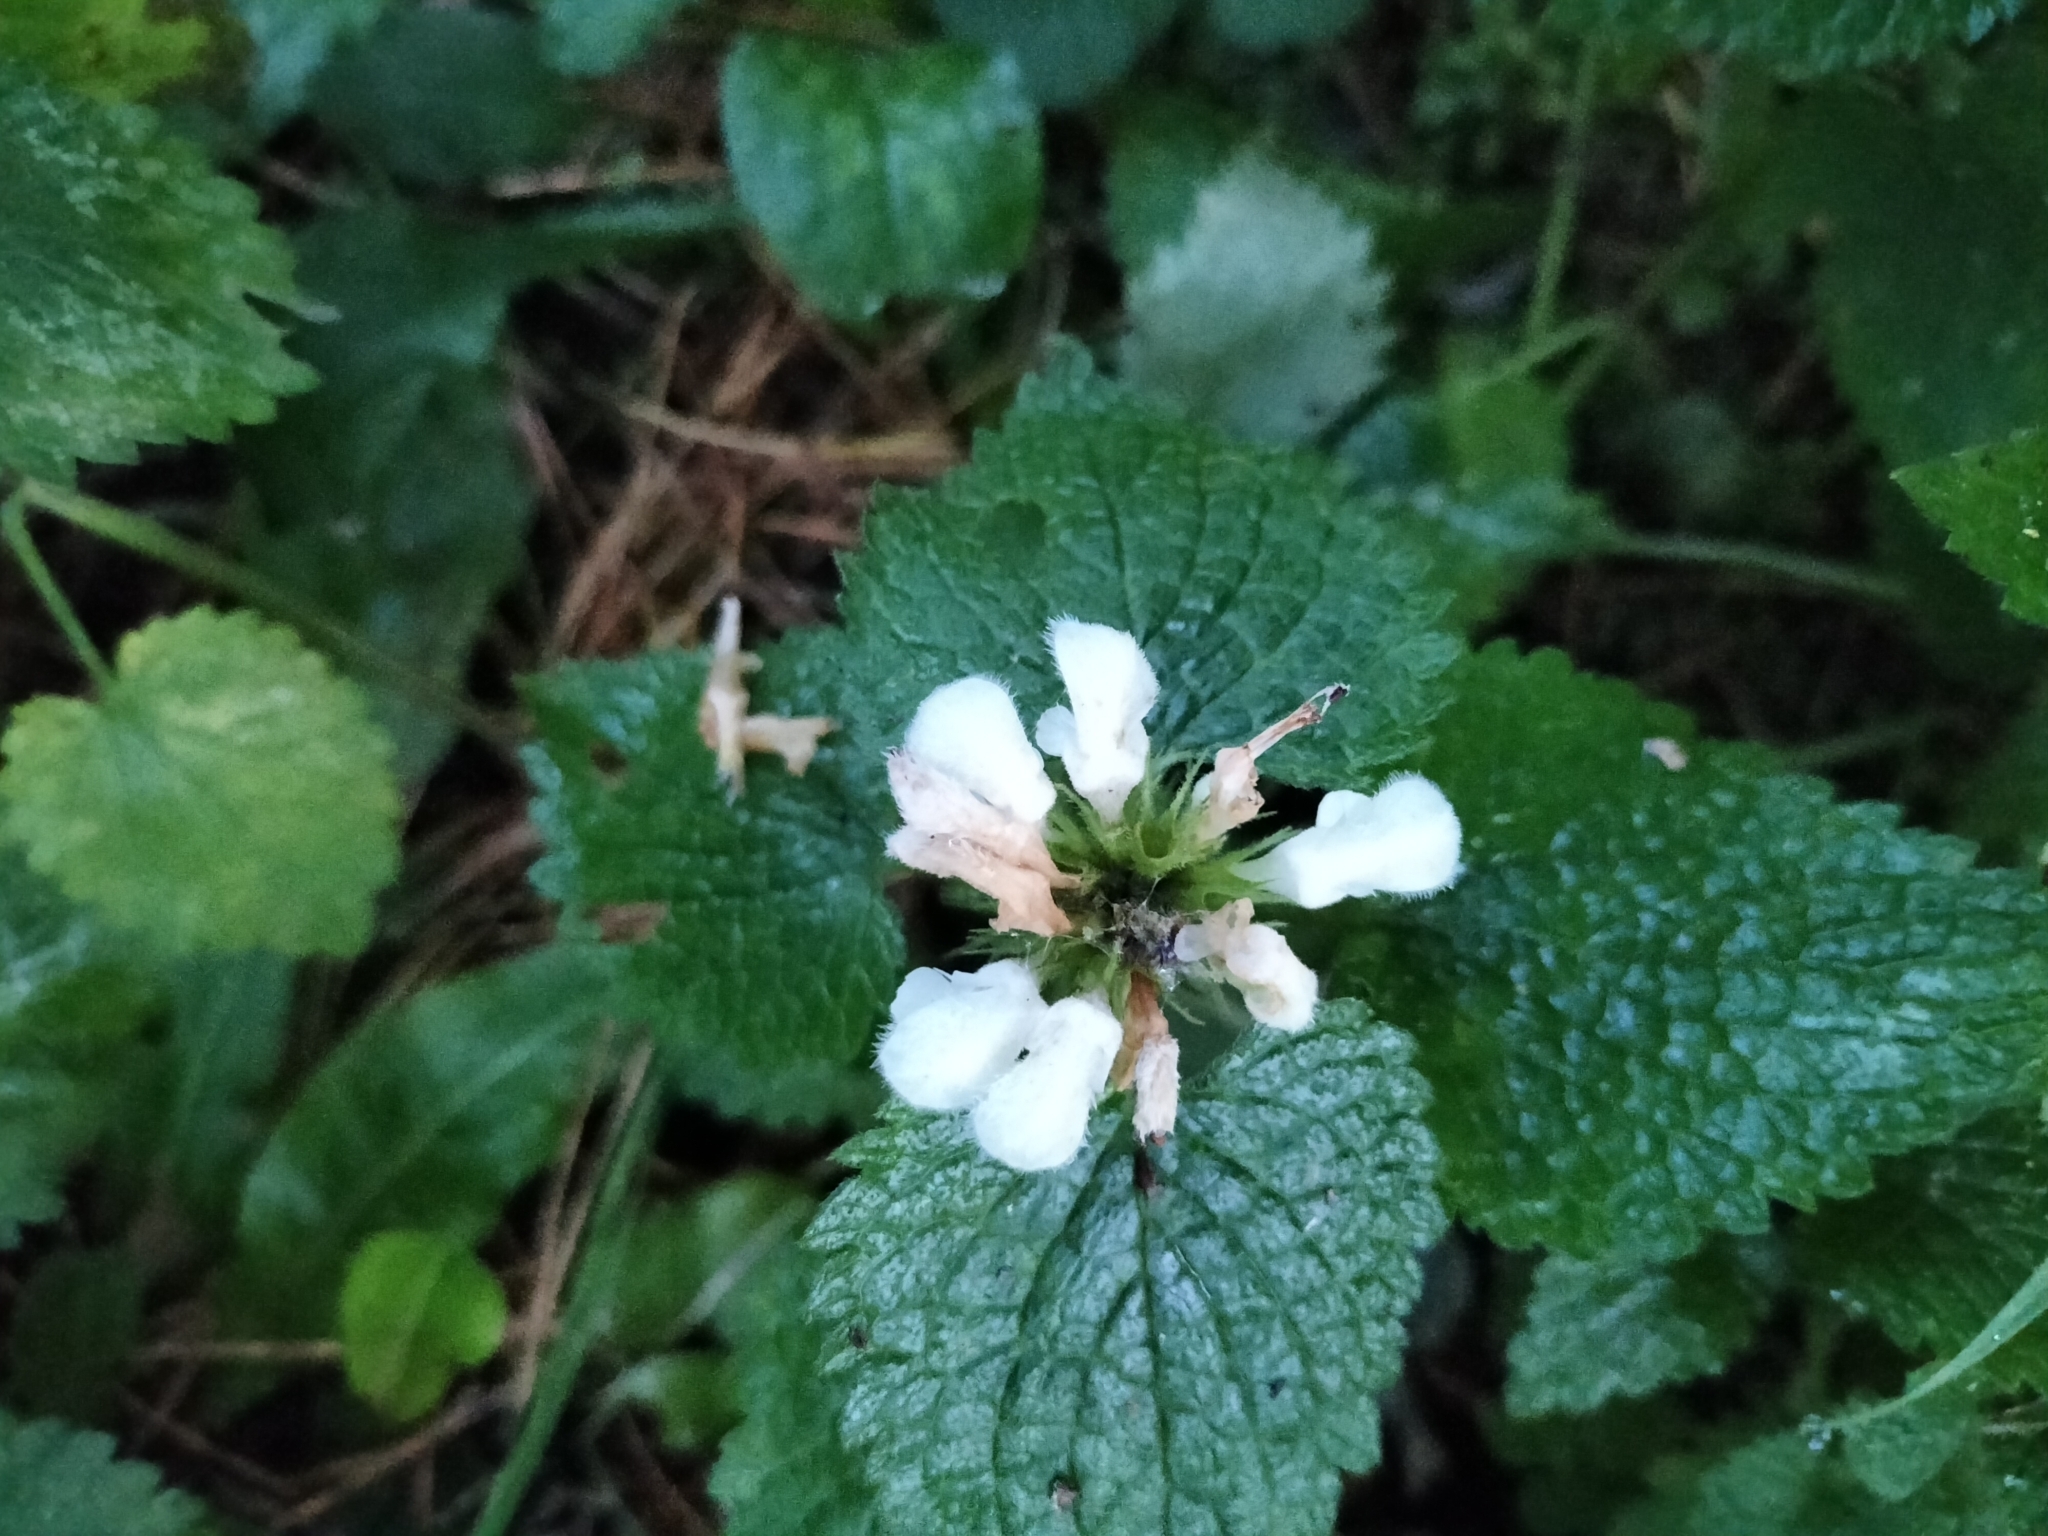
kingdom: Plantae
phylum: Tracheophyta
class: Magnoliopsida
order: Lamiales
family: Lamiaceae
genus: Lamium
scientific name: Lamium album
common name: White dead-nettle
